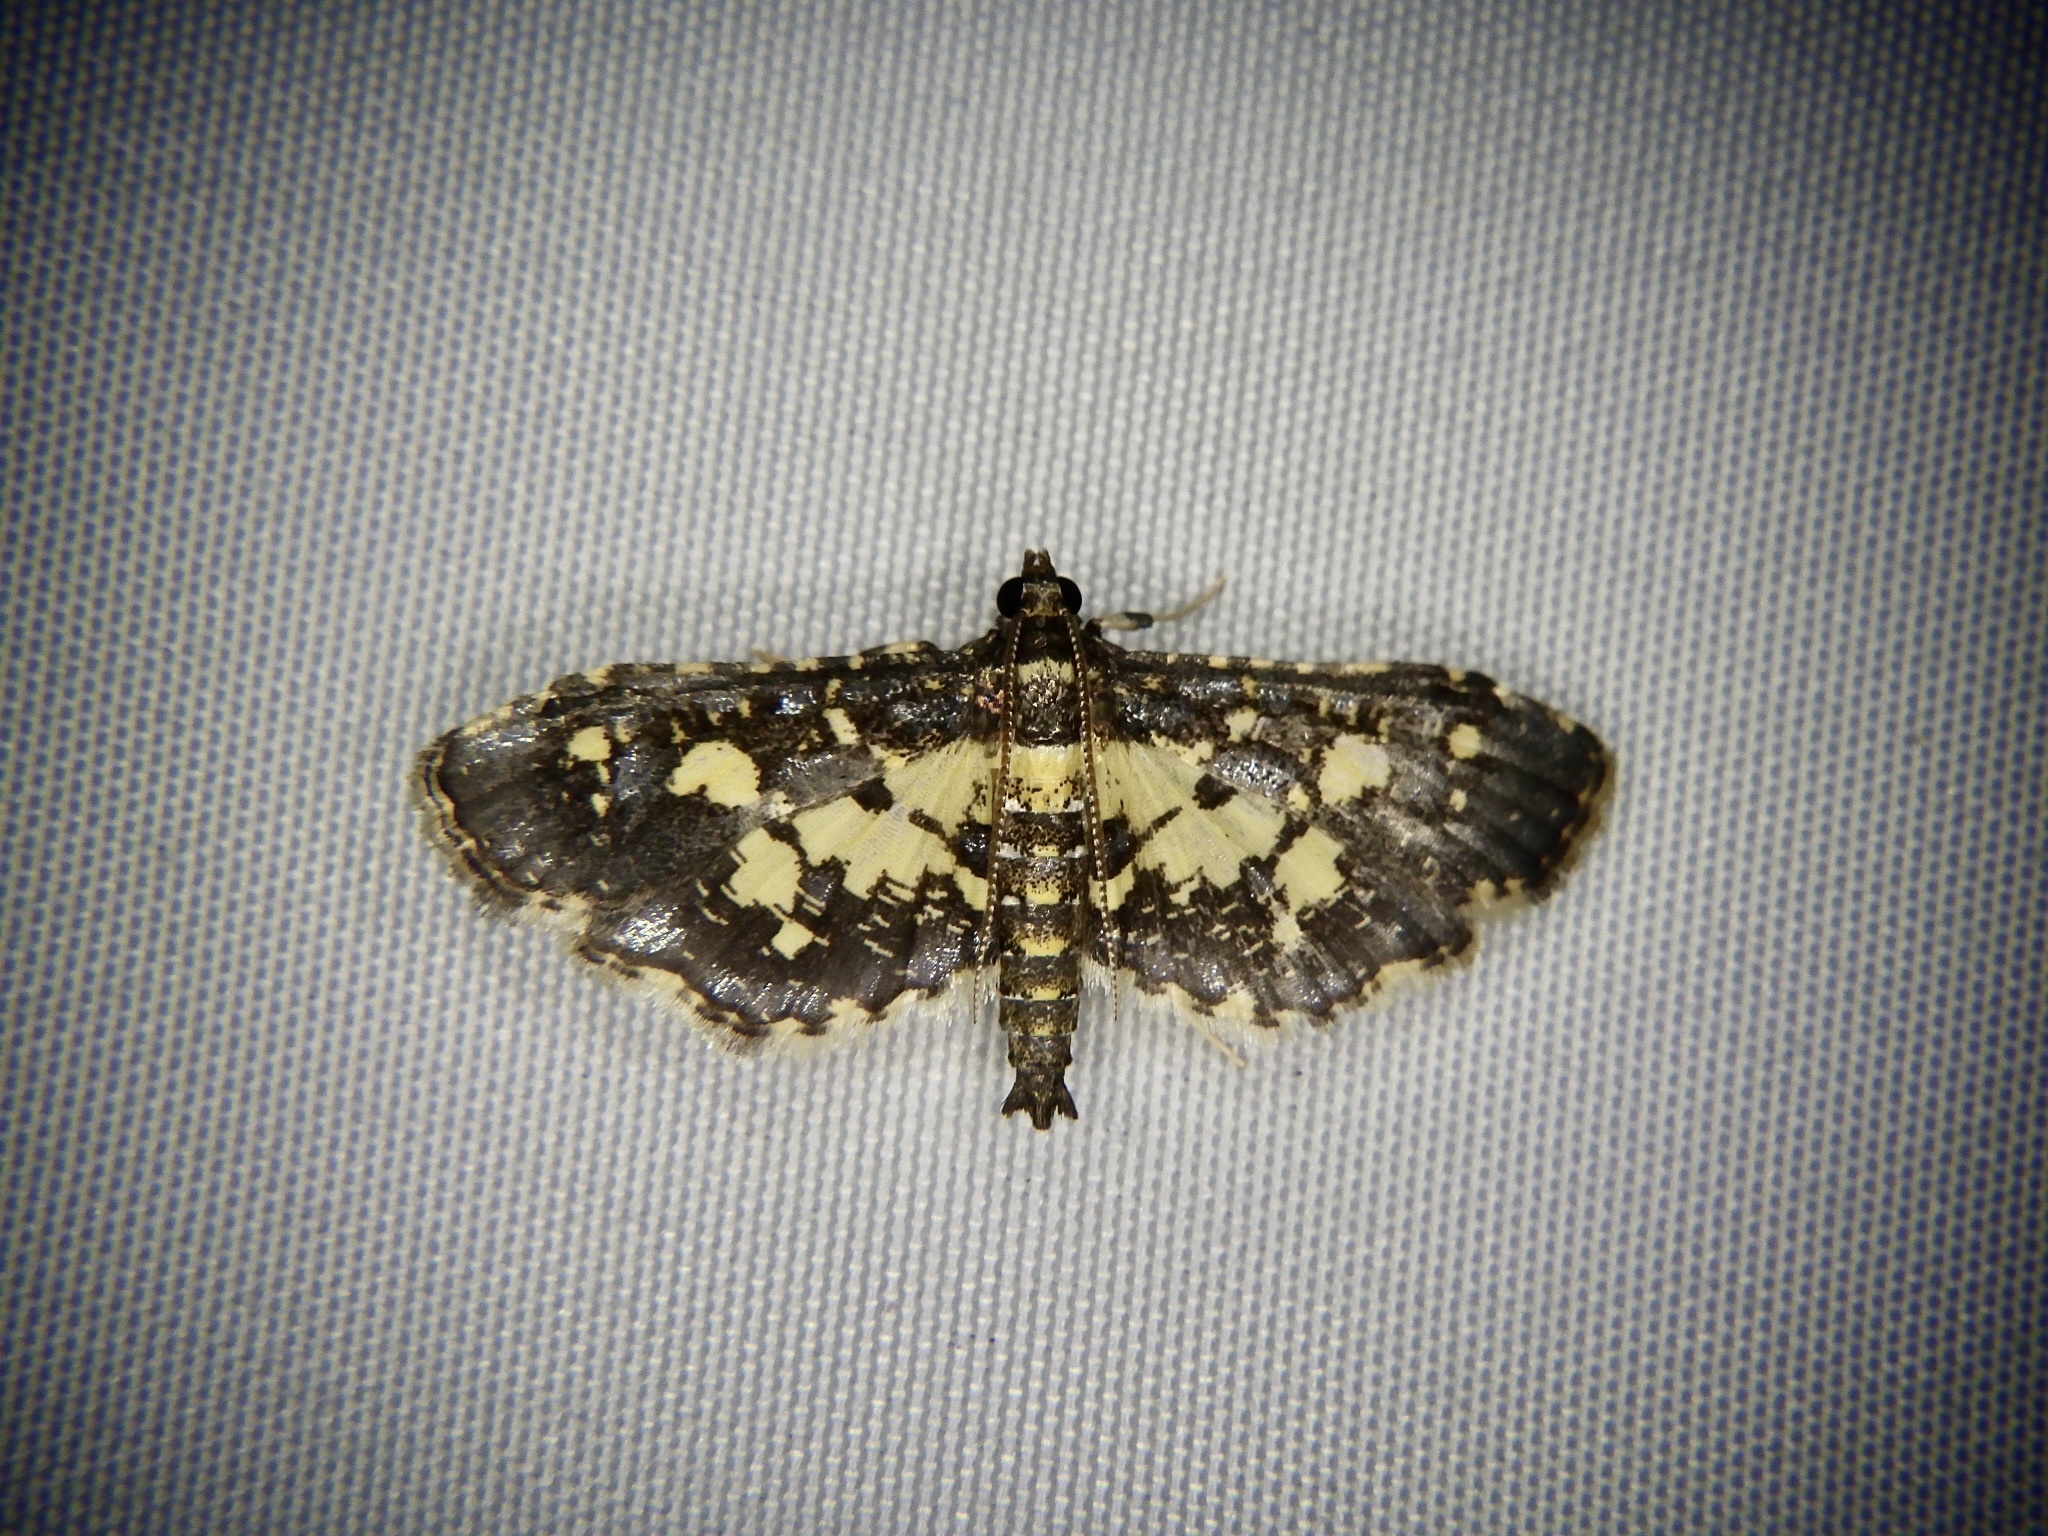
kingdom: Animalia
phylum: Arthropoda
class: Insecta
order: Lepidoptera
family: Crambidae
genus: Eurrhyparodes
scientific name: Eurrhyparodes bracteolalis
